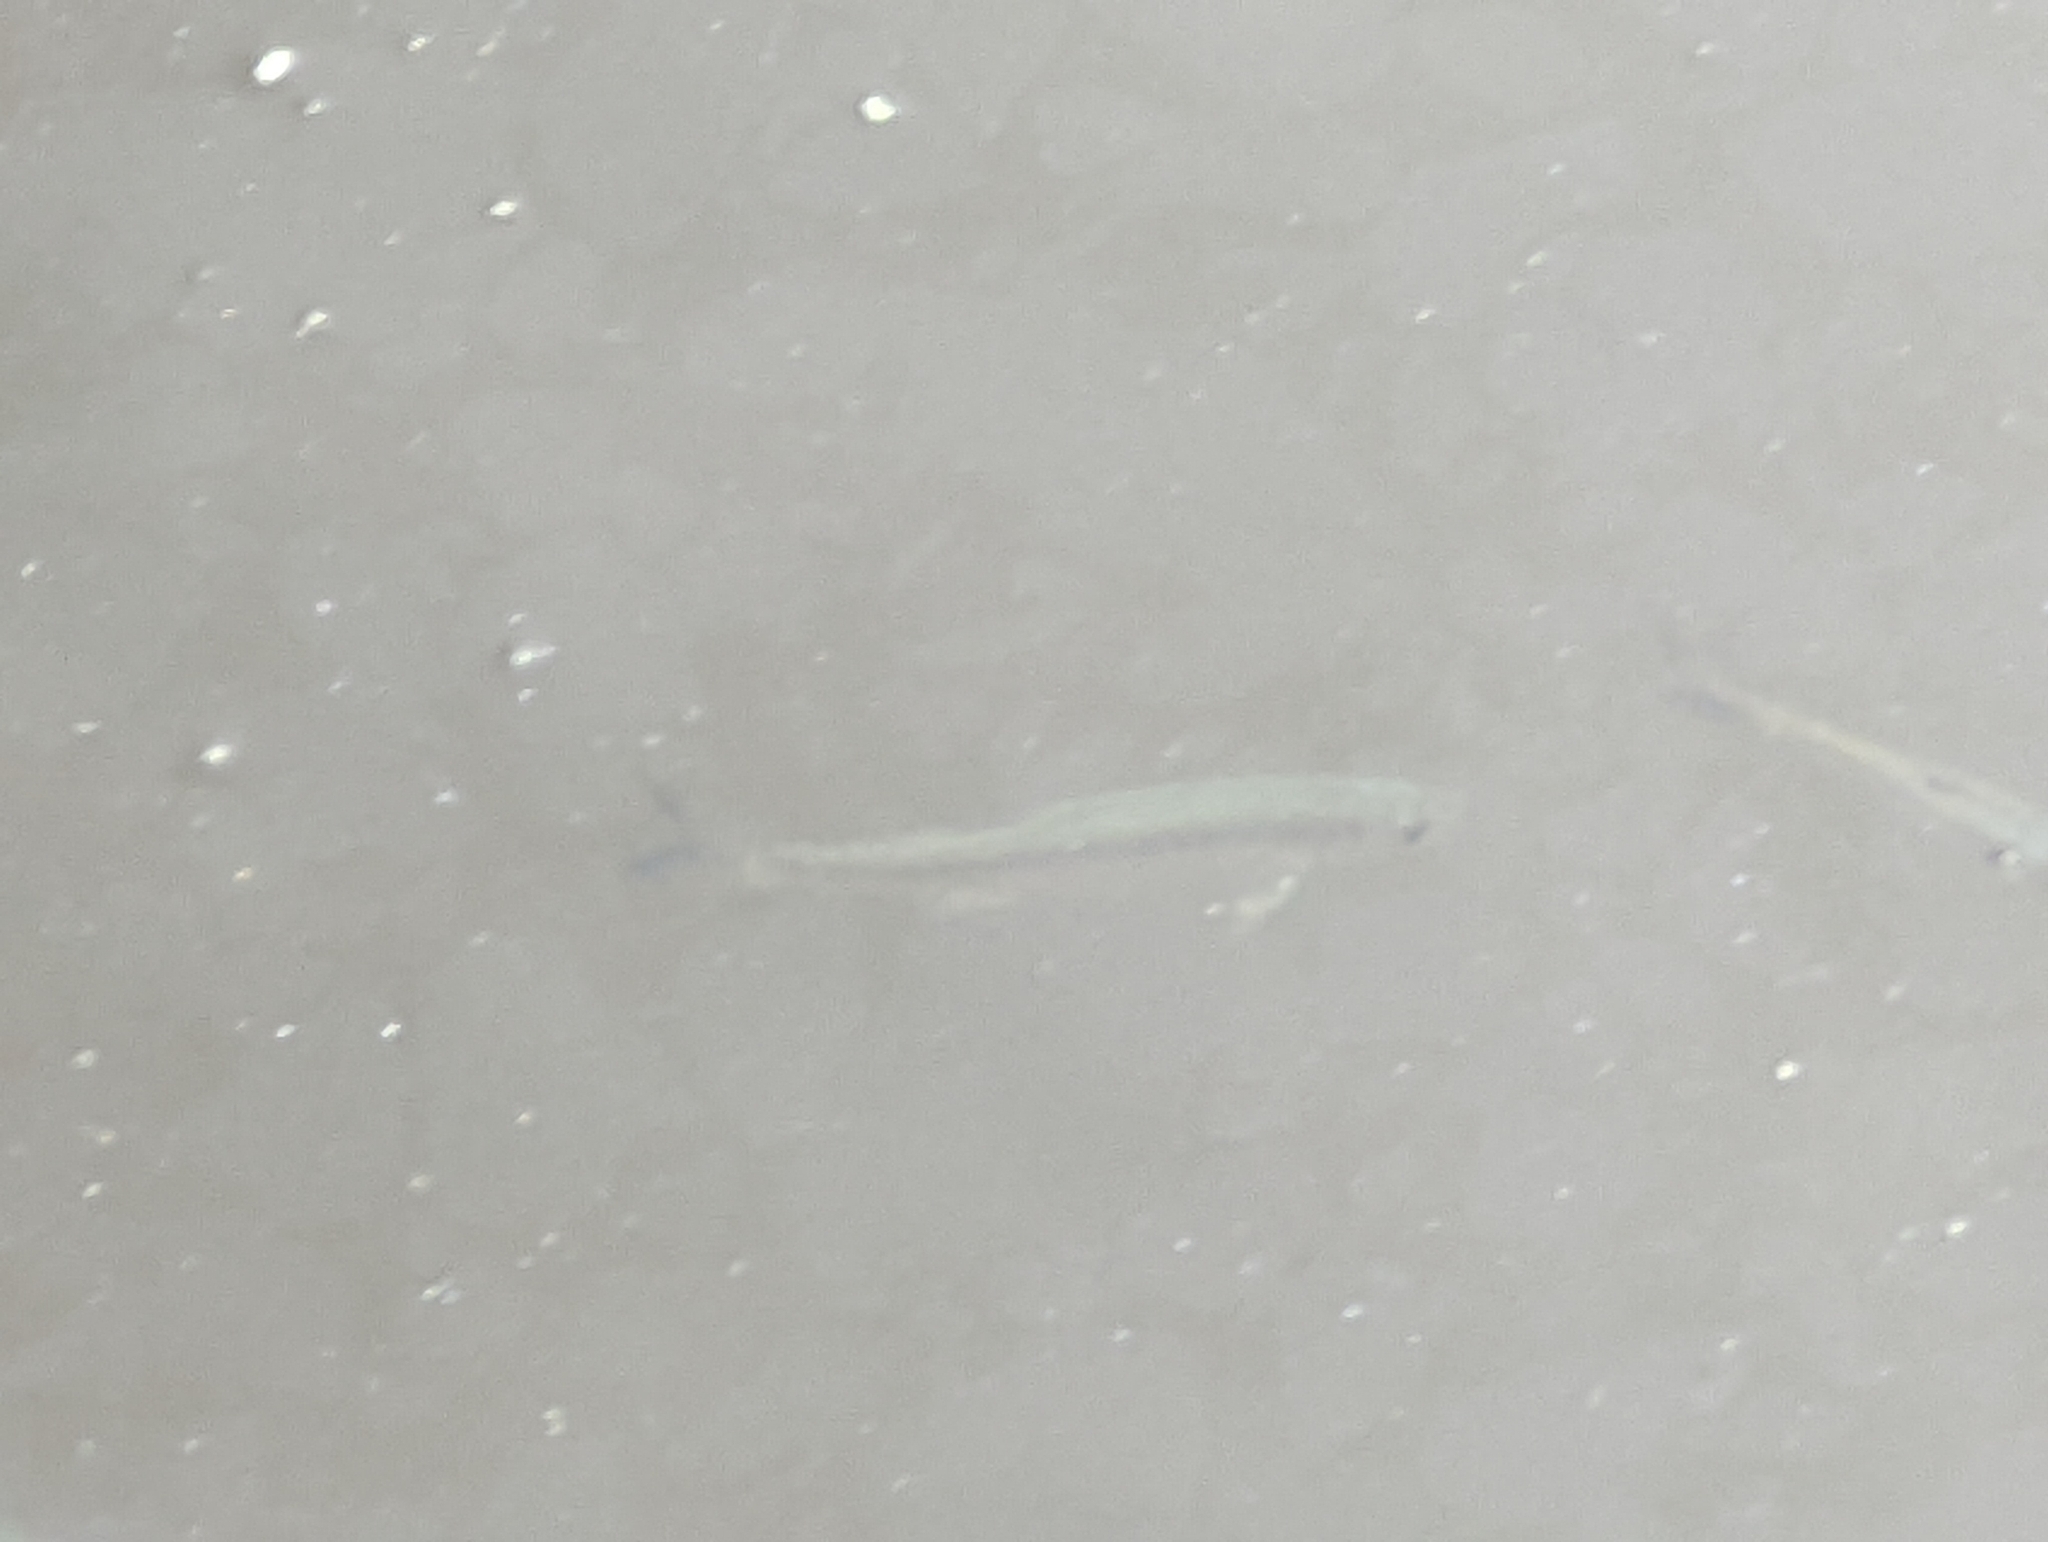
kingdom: Animalia
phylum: Chordata
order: Cypriniformes
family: Cyprinidae
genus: Alburnus
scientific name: Alburnus alburnus
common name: Bleak
